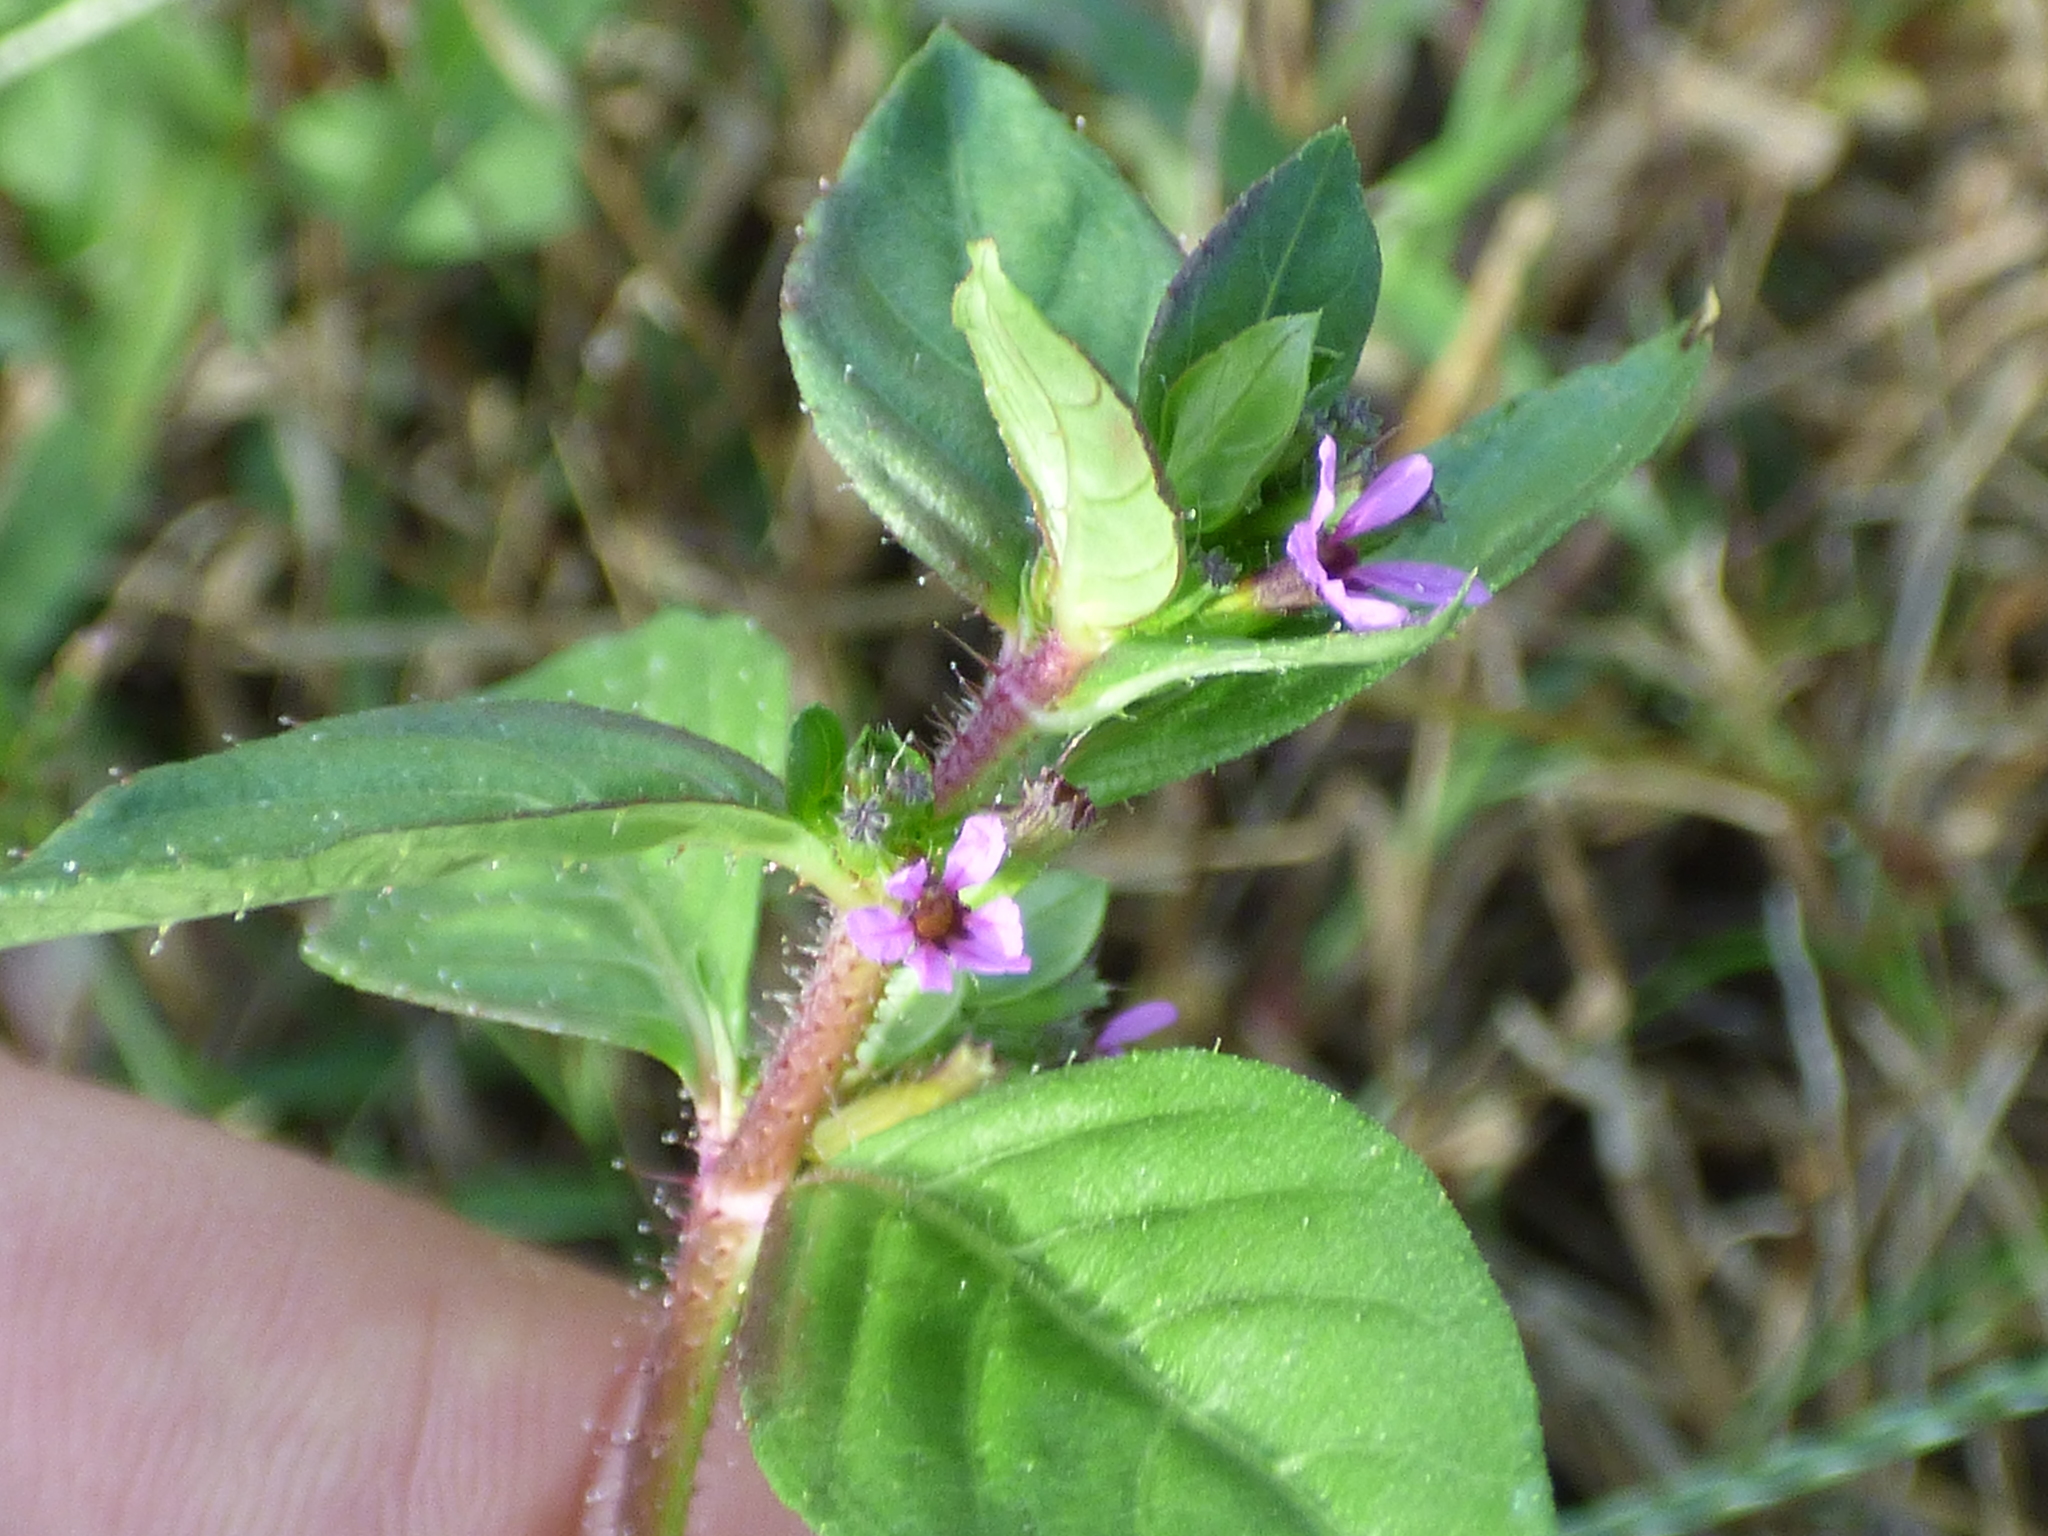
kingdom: Plantae
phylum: Tracheophyta
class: Magnoliopsida
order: Myrtales
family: Lythraceae
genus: Cuphea
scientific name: Cuphea carthagenensis
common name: Colombian waxweed
